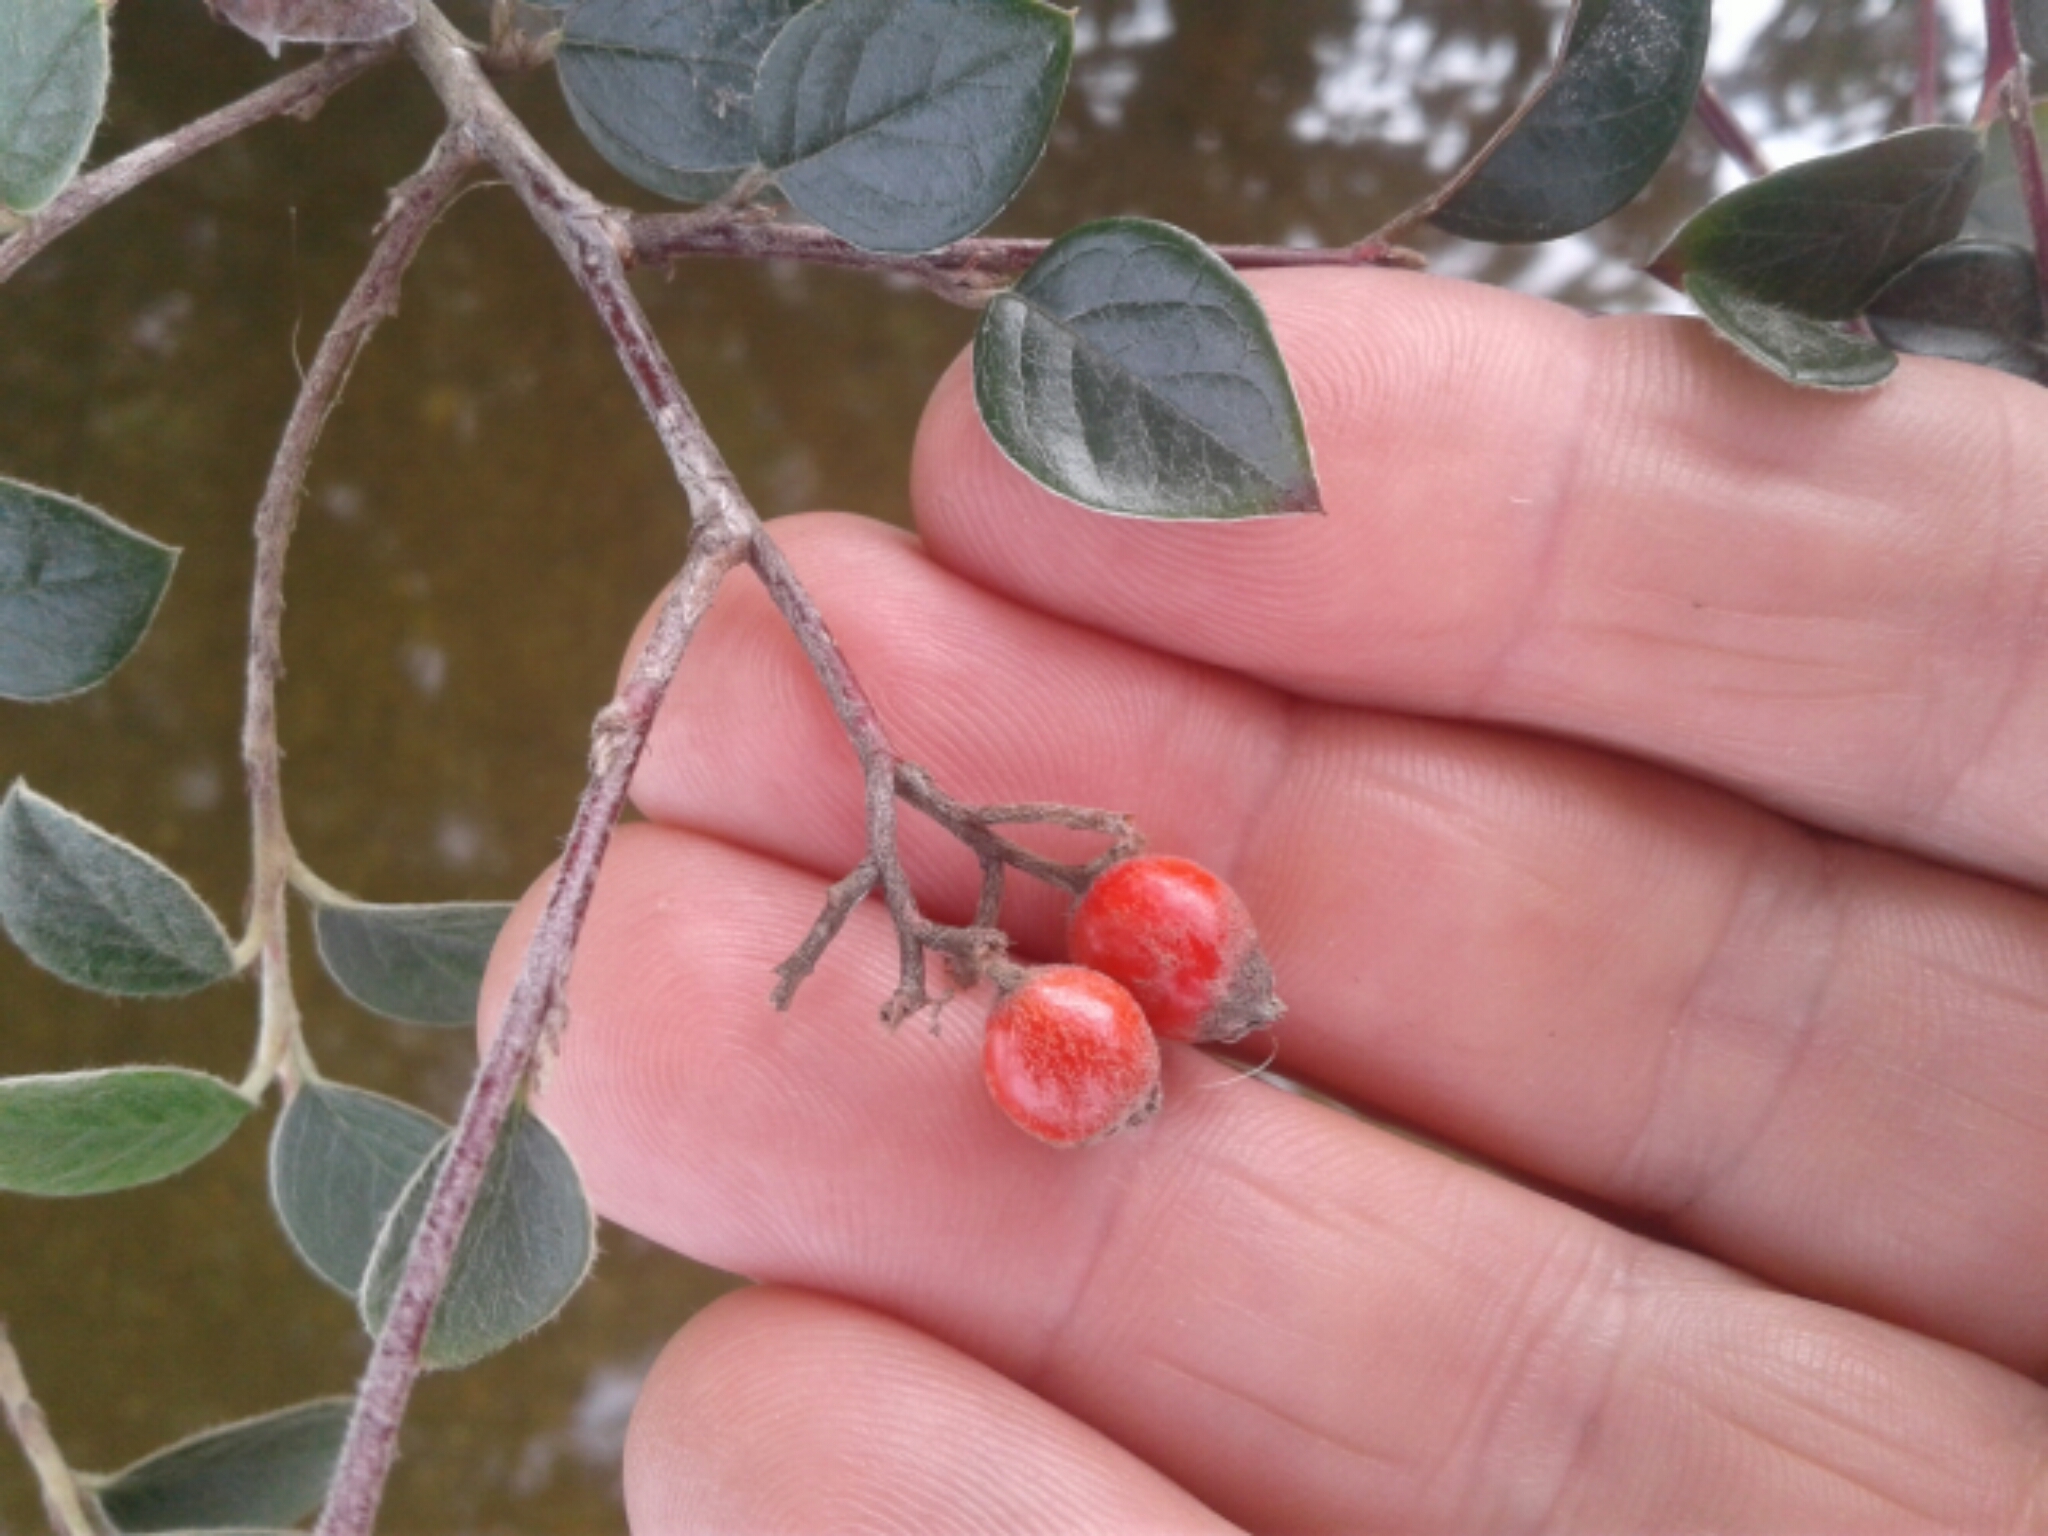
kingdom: Plantae
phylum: Tracheophyta
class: Magnoliopsida
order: Rosales
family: Rosaceae
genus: Cotoneaster
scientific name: Cotoneaster simonsii
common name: Himalayan cotoneaster
